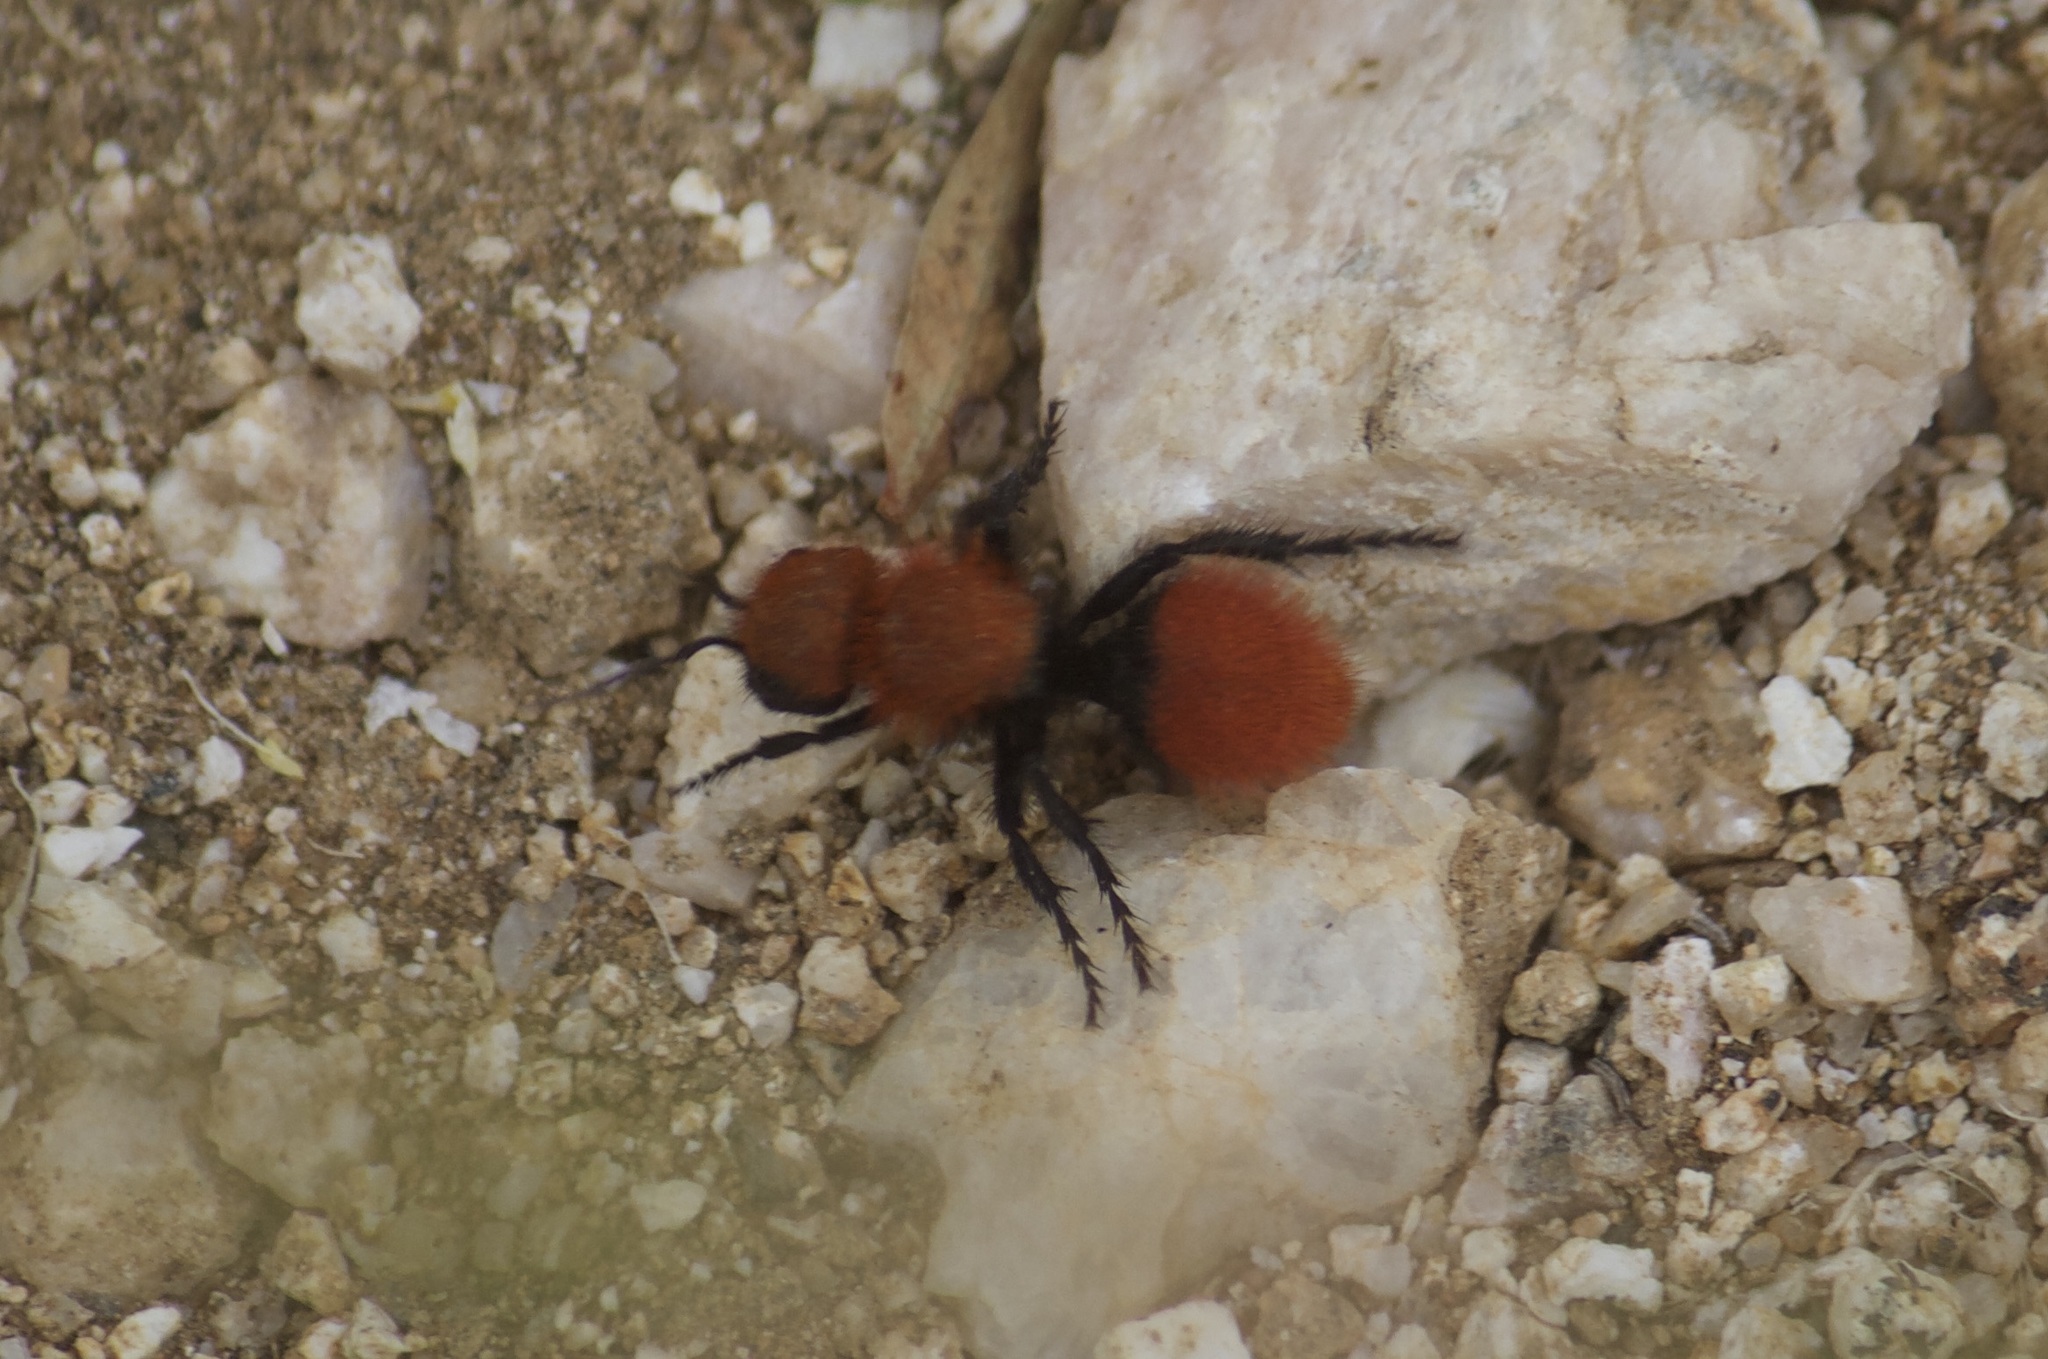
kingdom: Animalia
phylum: Arthropoda
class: Insecta
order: Hymenoptera
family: Mutillidae
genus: Dasymutilla
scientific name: Dasymutilla
